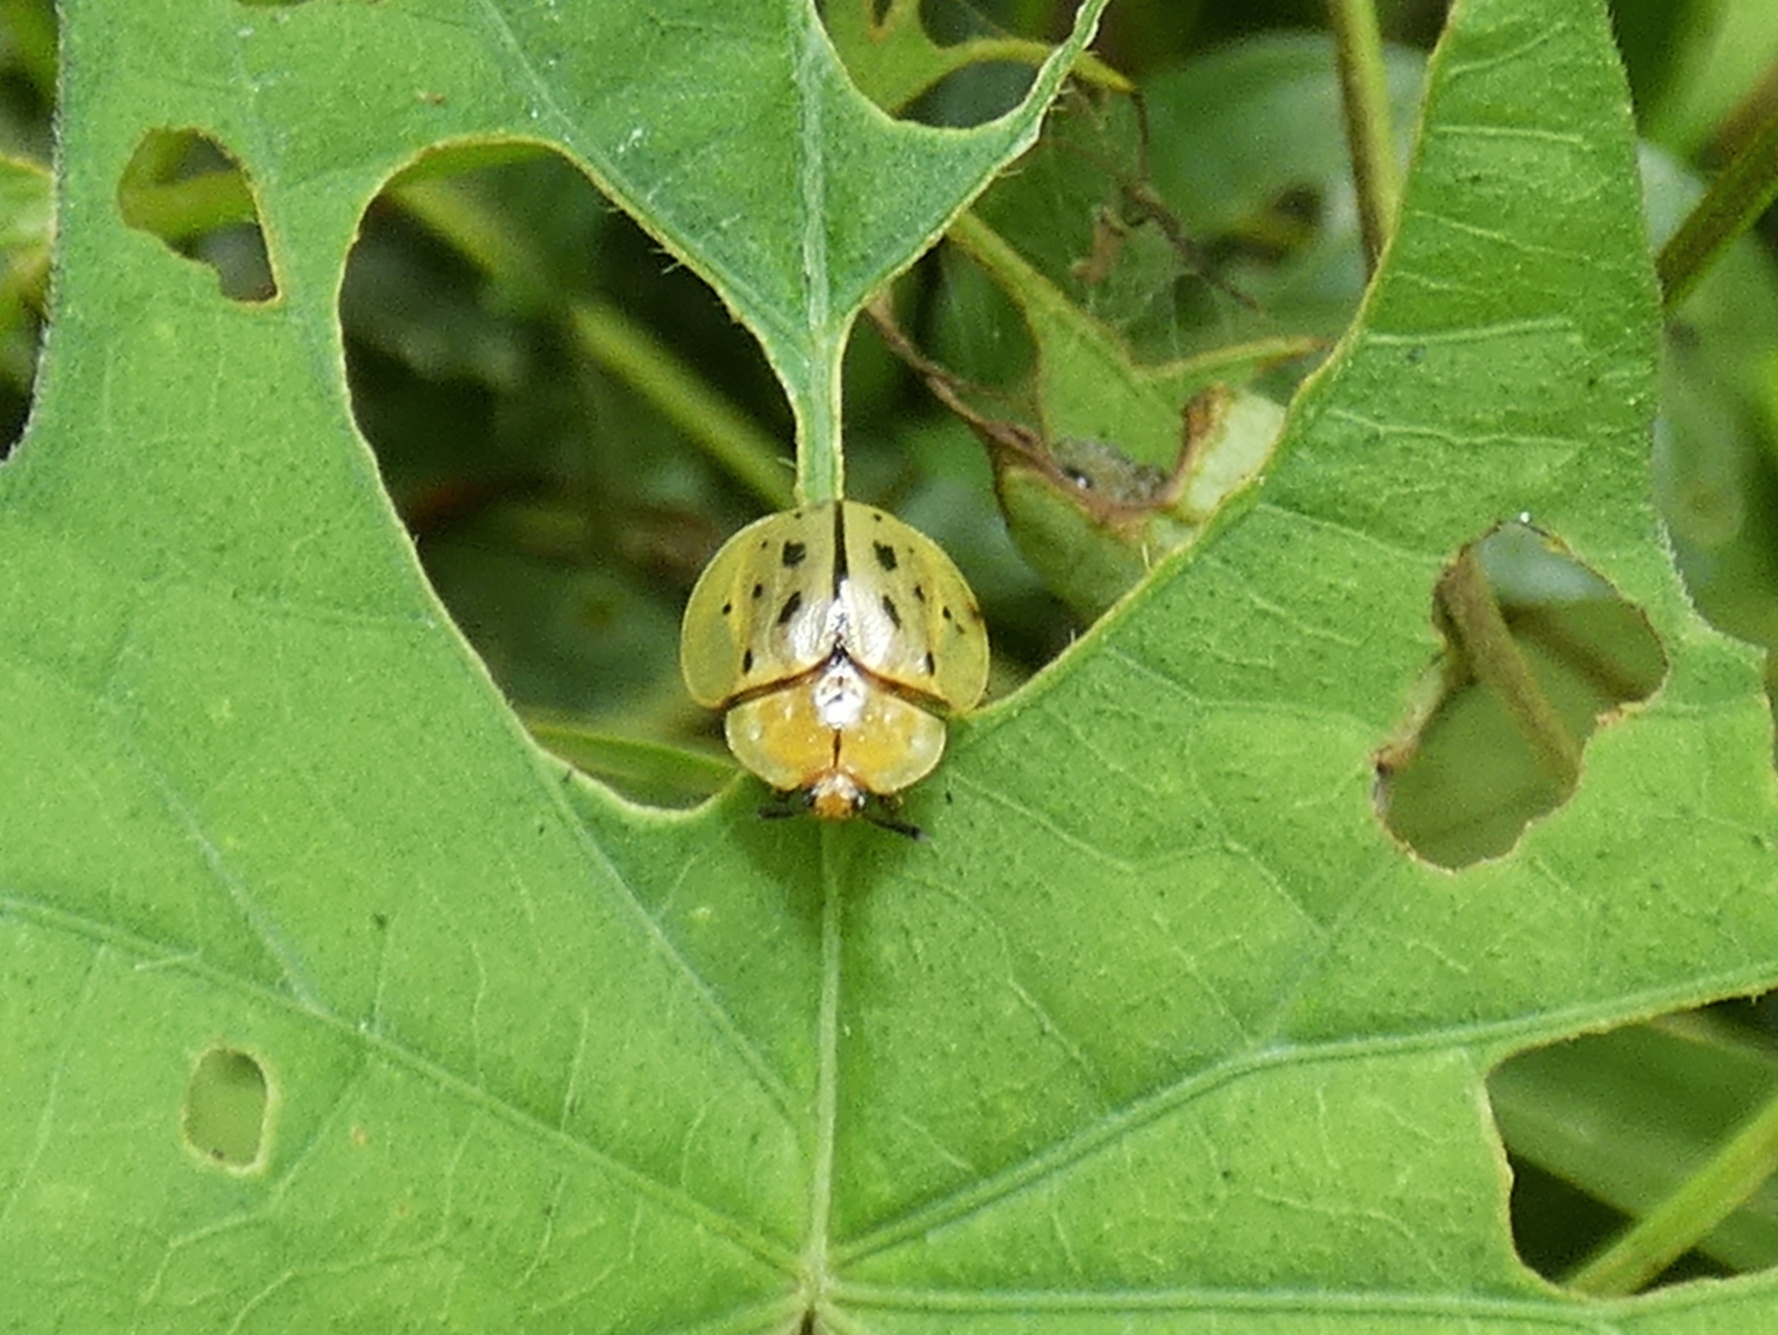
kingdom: Animalia
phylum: Arthropoda
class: Insecta
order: Coleoptera
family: Chrysomelidae
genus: Stolas
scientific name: Stolas pertusa
